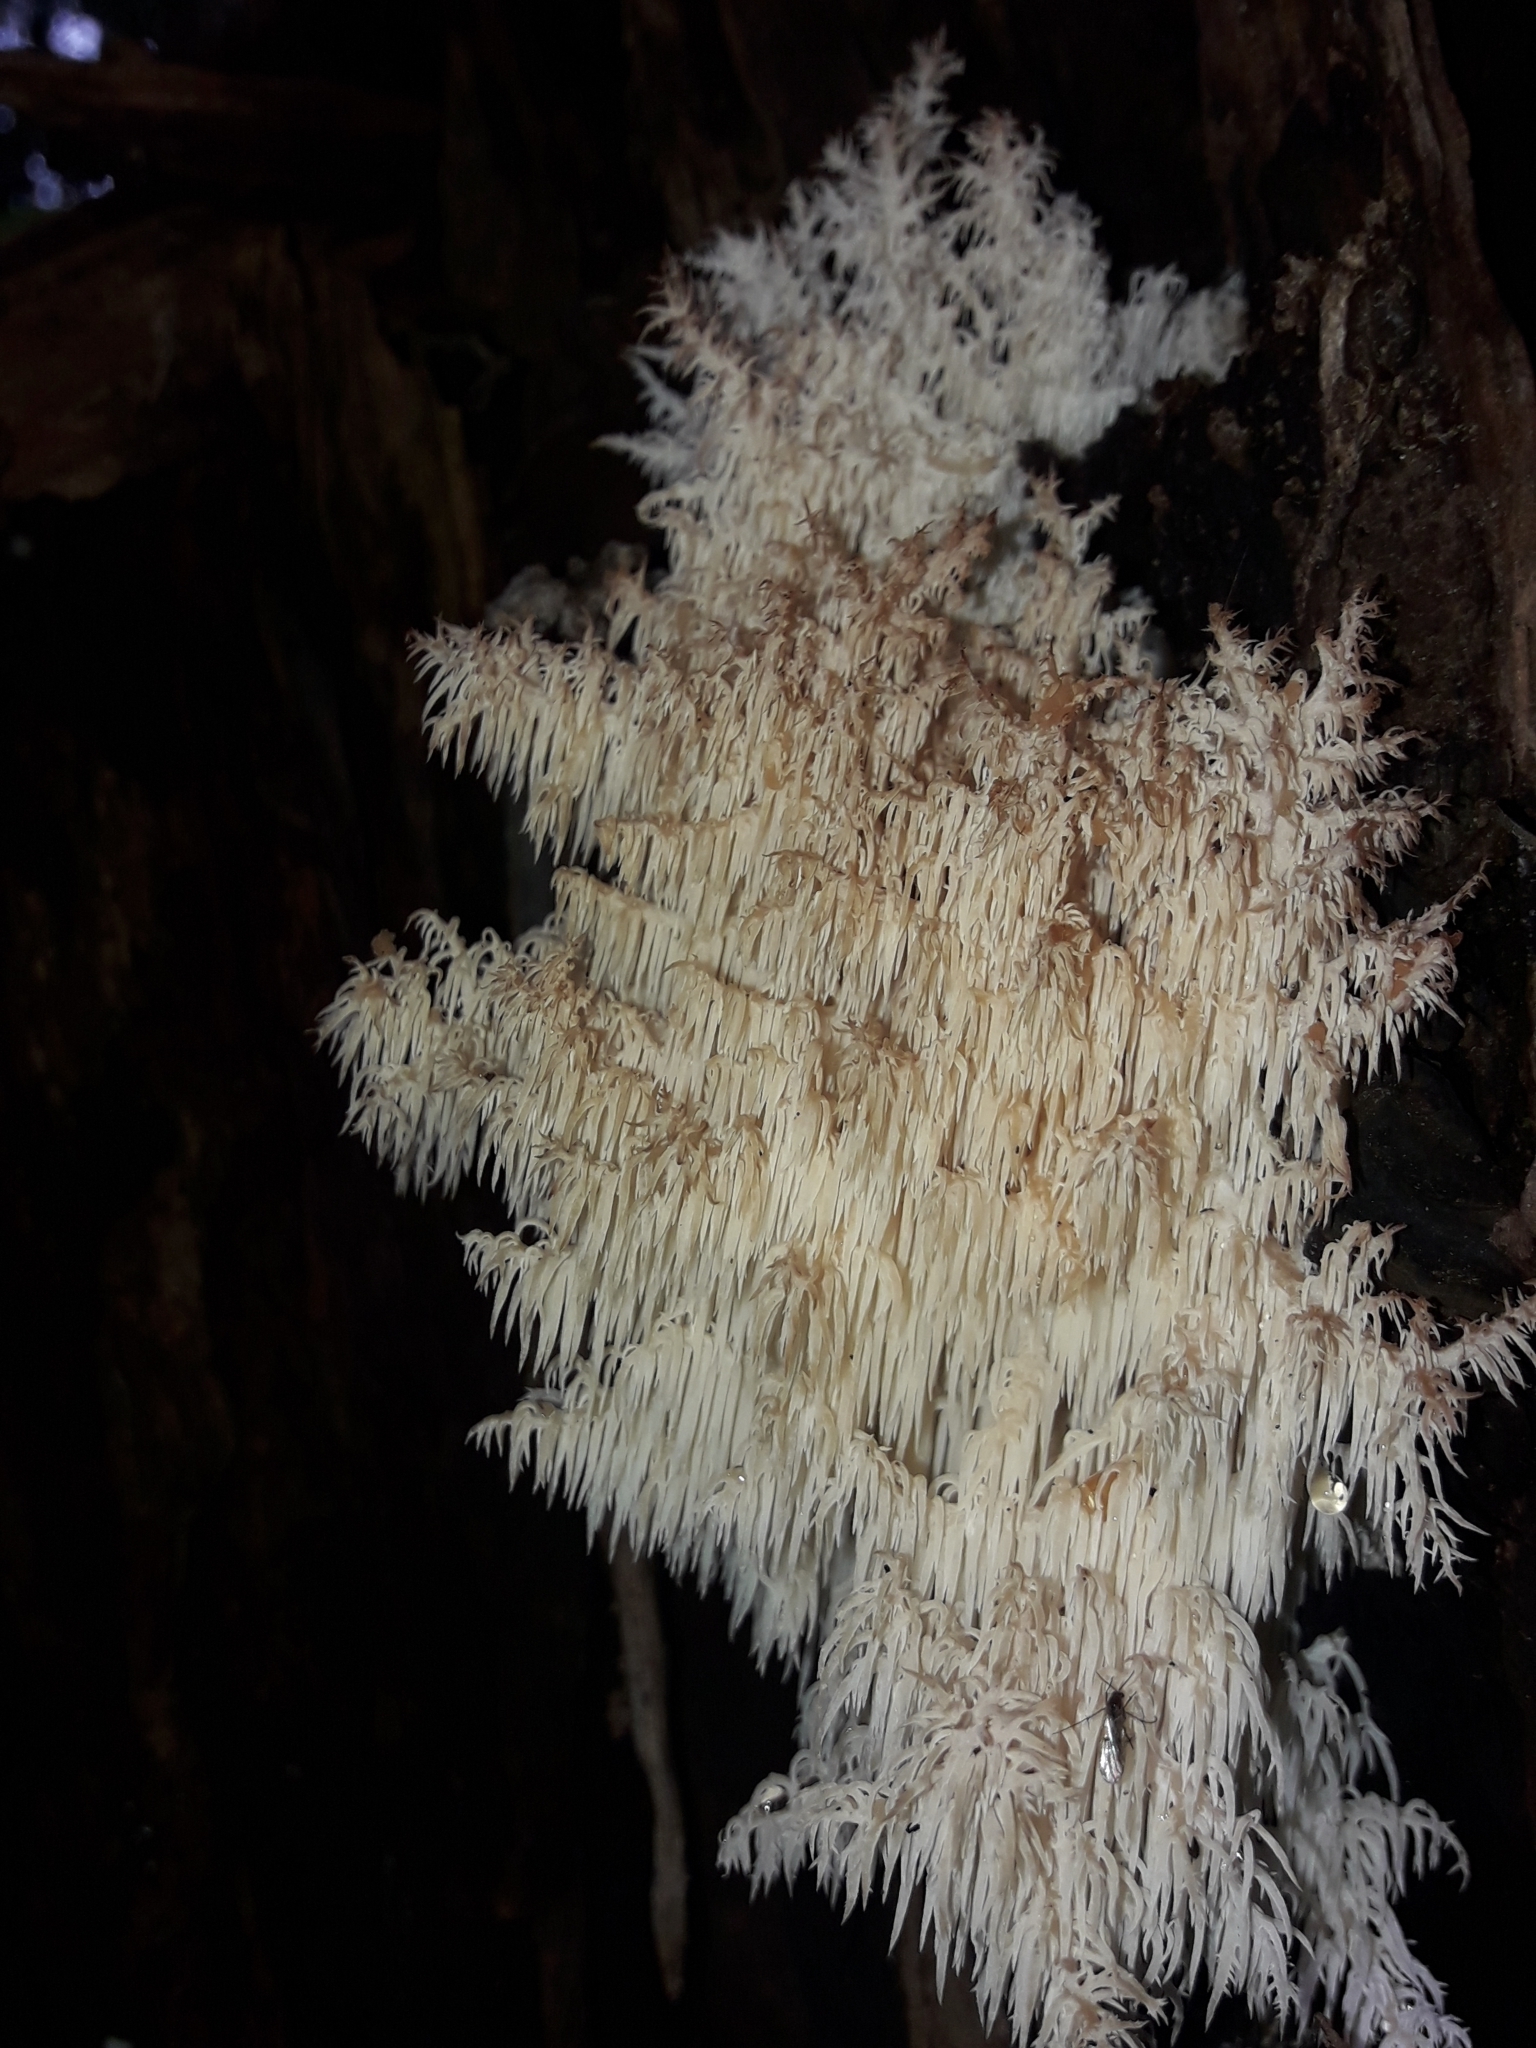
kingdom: Fungi
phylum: Basidiomycota
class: Agaricomycetes
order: Russulales
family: Hericiaceae
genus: Hericium
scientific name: Hericium novae-zealandiae
